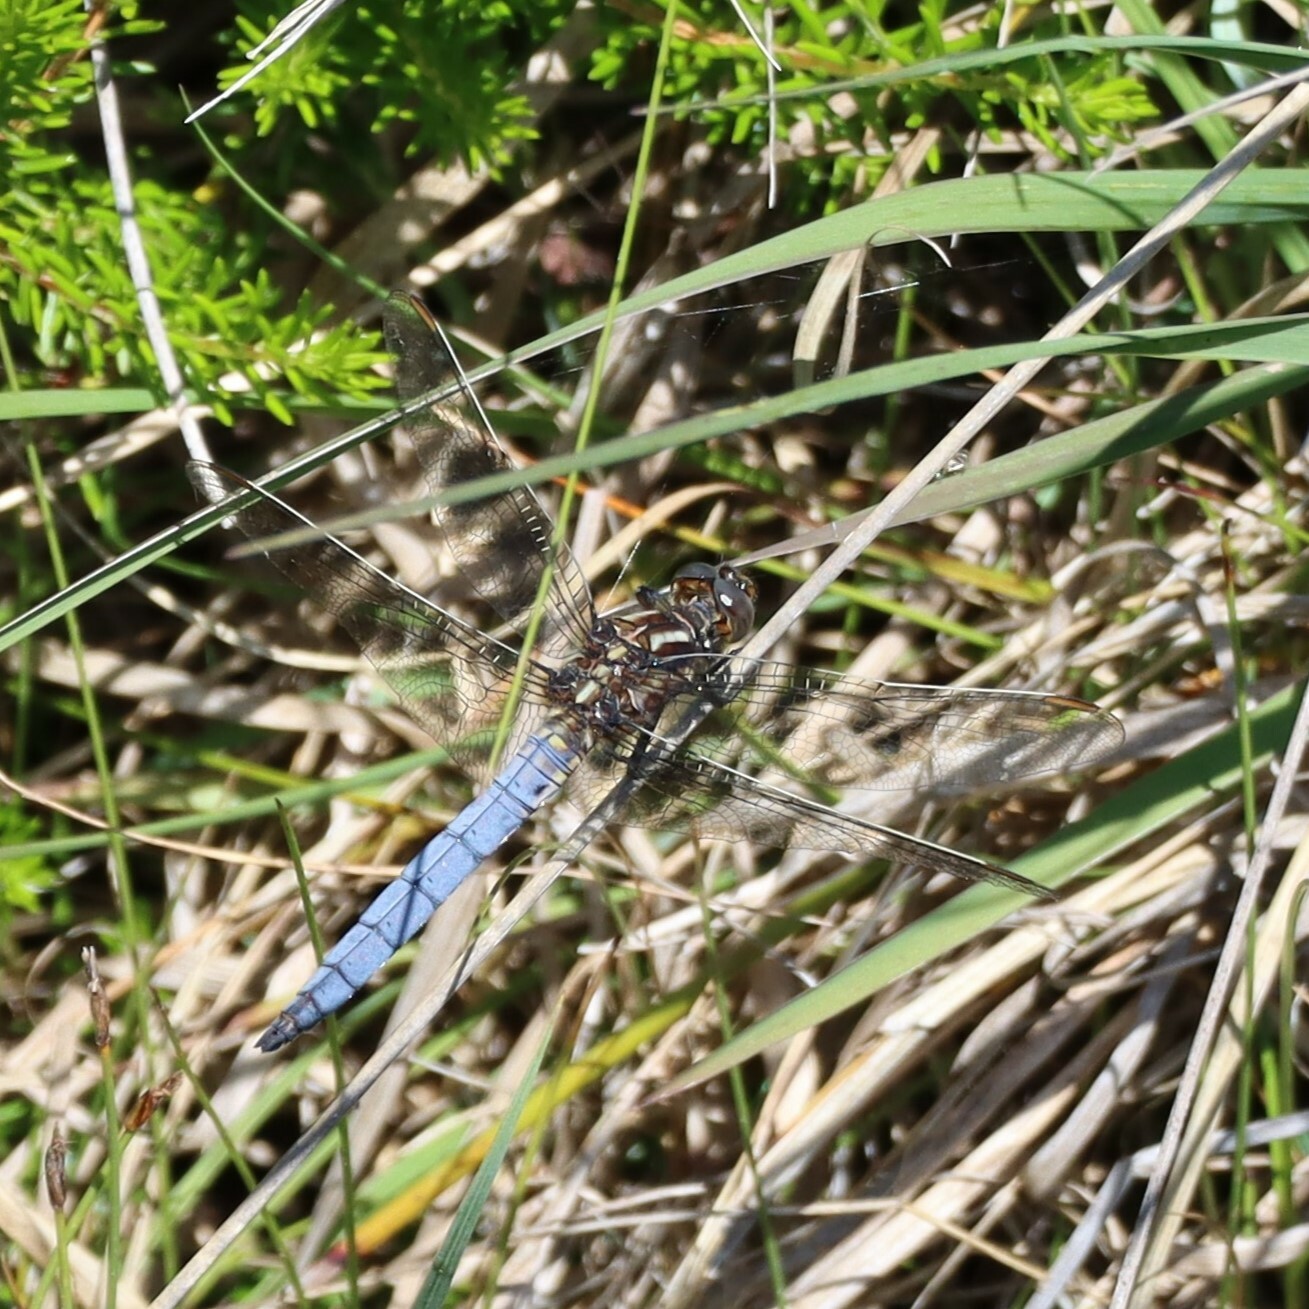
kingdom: Animalia
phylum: Arthropoda
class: Insecta
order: Odonata
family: Libellulidae
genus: Orthetrum
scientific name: Orthetrum coerulescens
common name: Keeled skimmer
